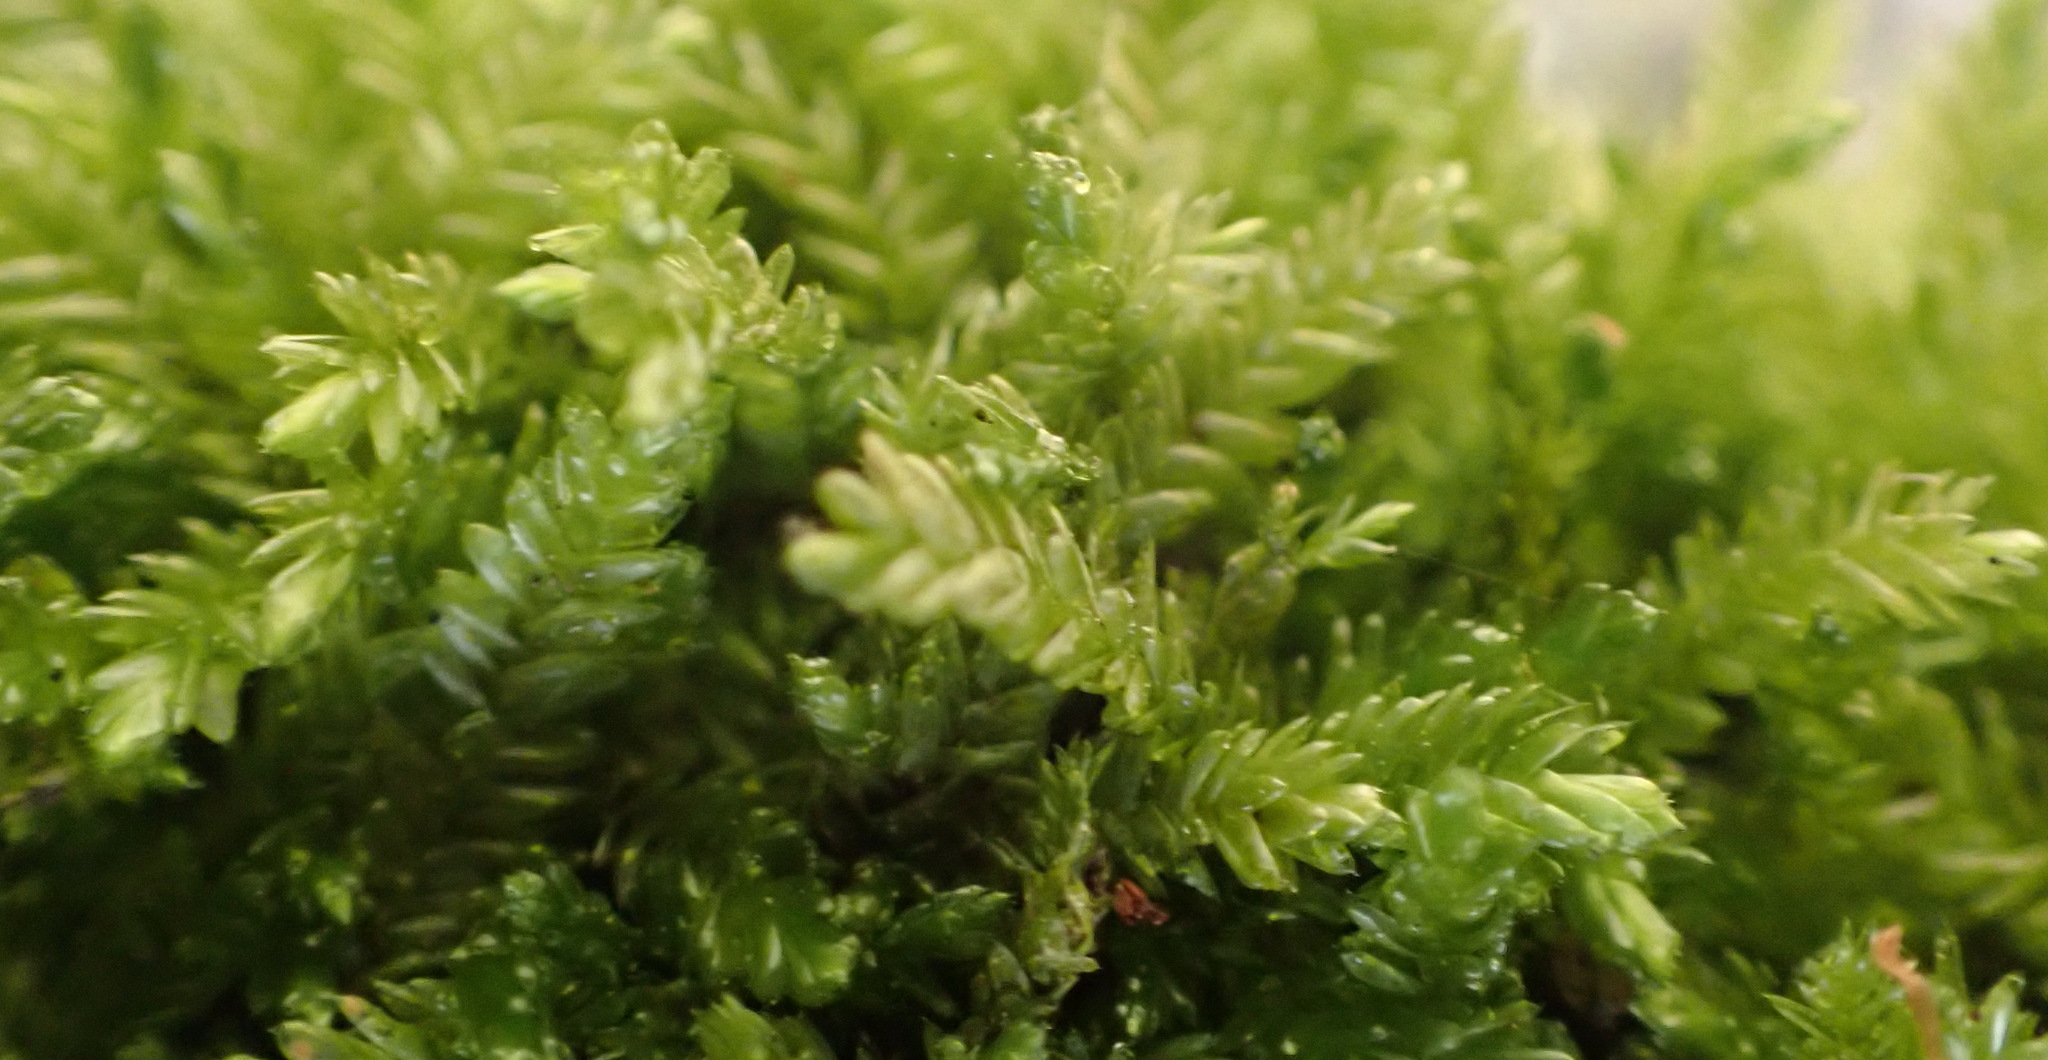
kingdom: Plantae
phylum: Bryophyta
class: Bryopsida
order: Hypnales
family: Catagoniaceae
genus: Catagonium
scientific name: Catagonium nitens
